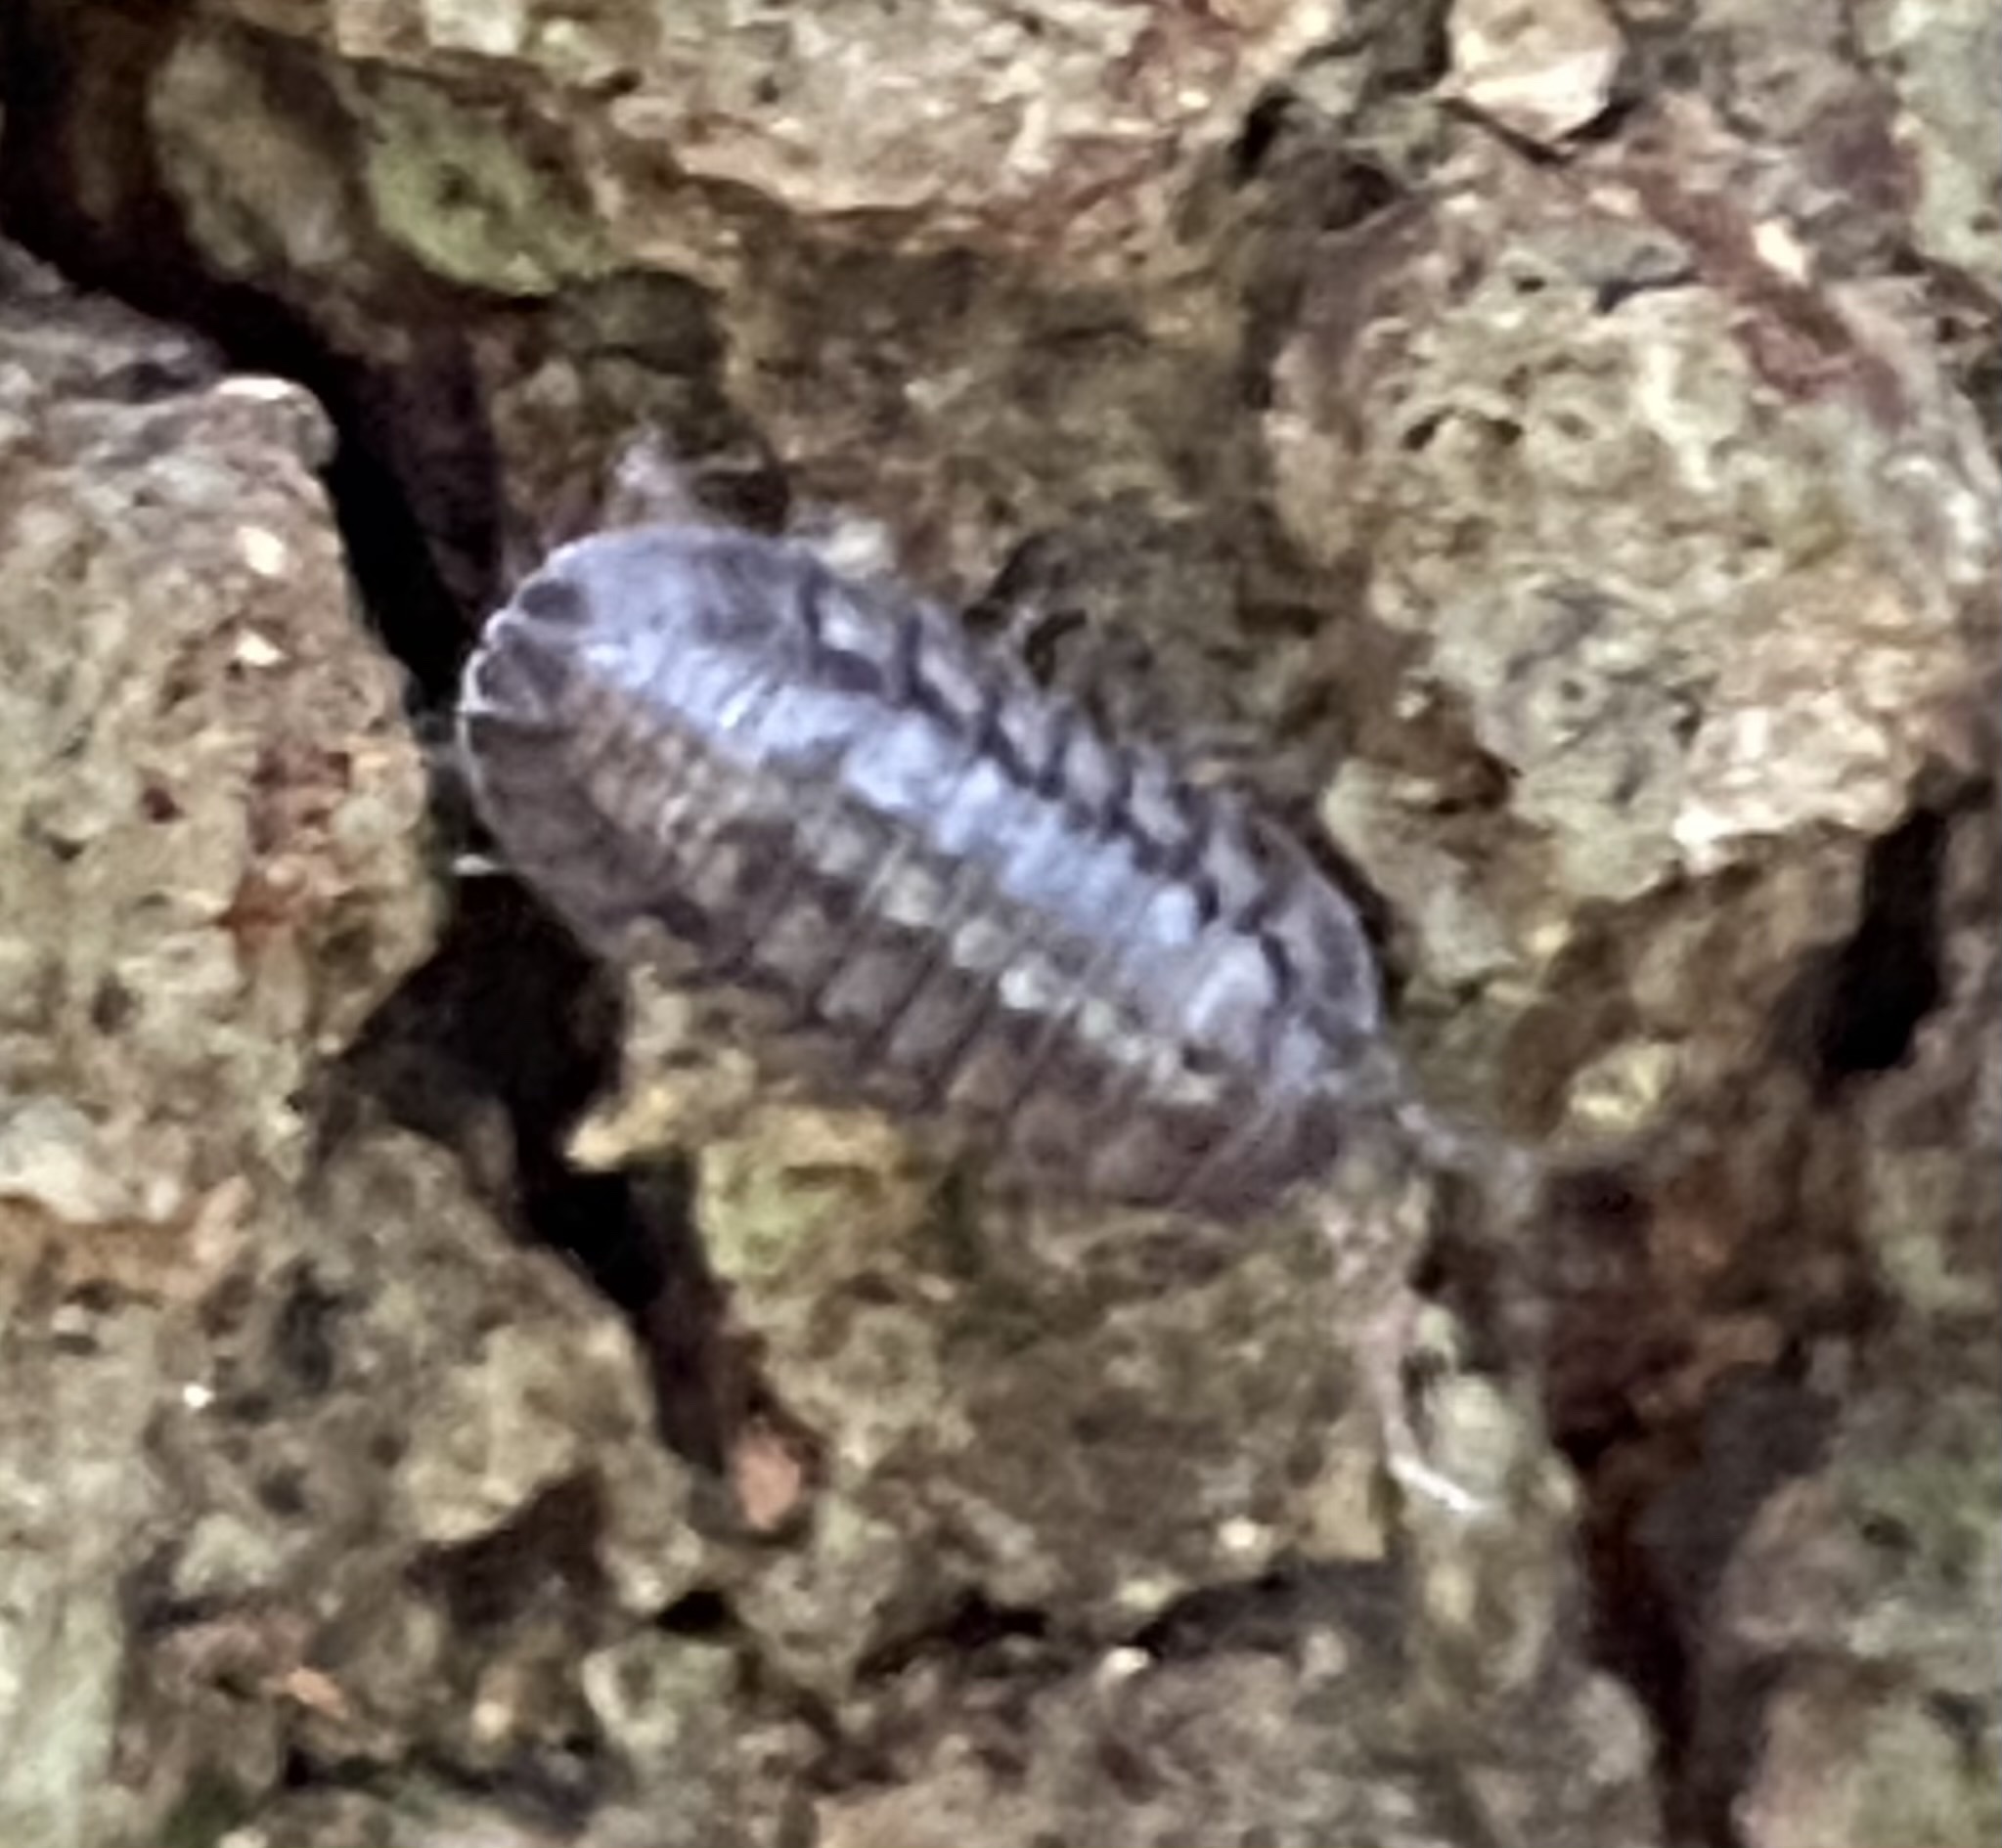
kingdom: Animalia
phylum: Arthropoda
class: Malacostraca
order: Isopoda
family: Armadillidiidae
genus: Armadillidium
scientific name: Armadillidium nasatum
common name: Isopod
